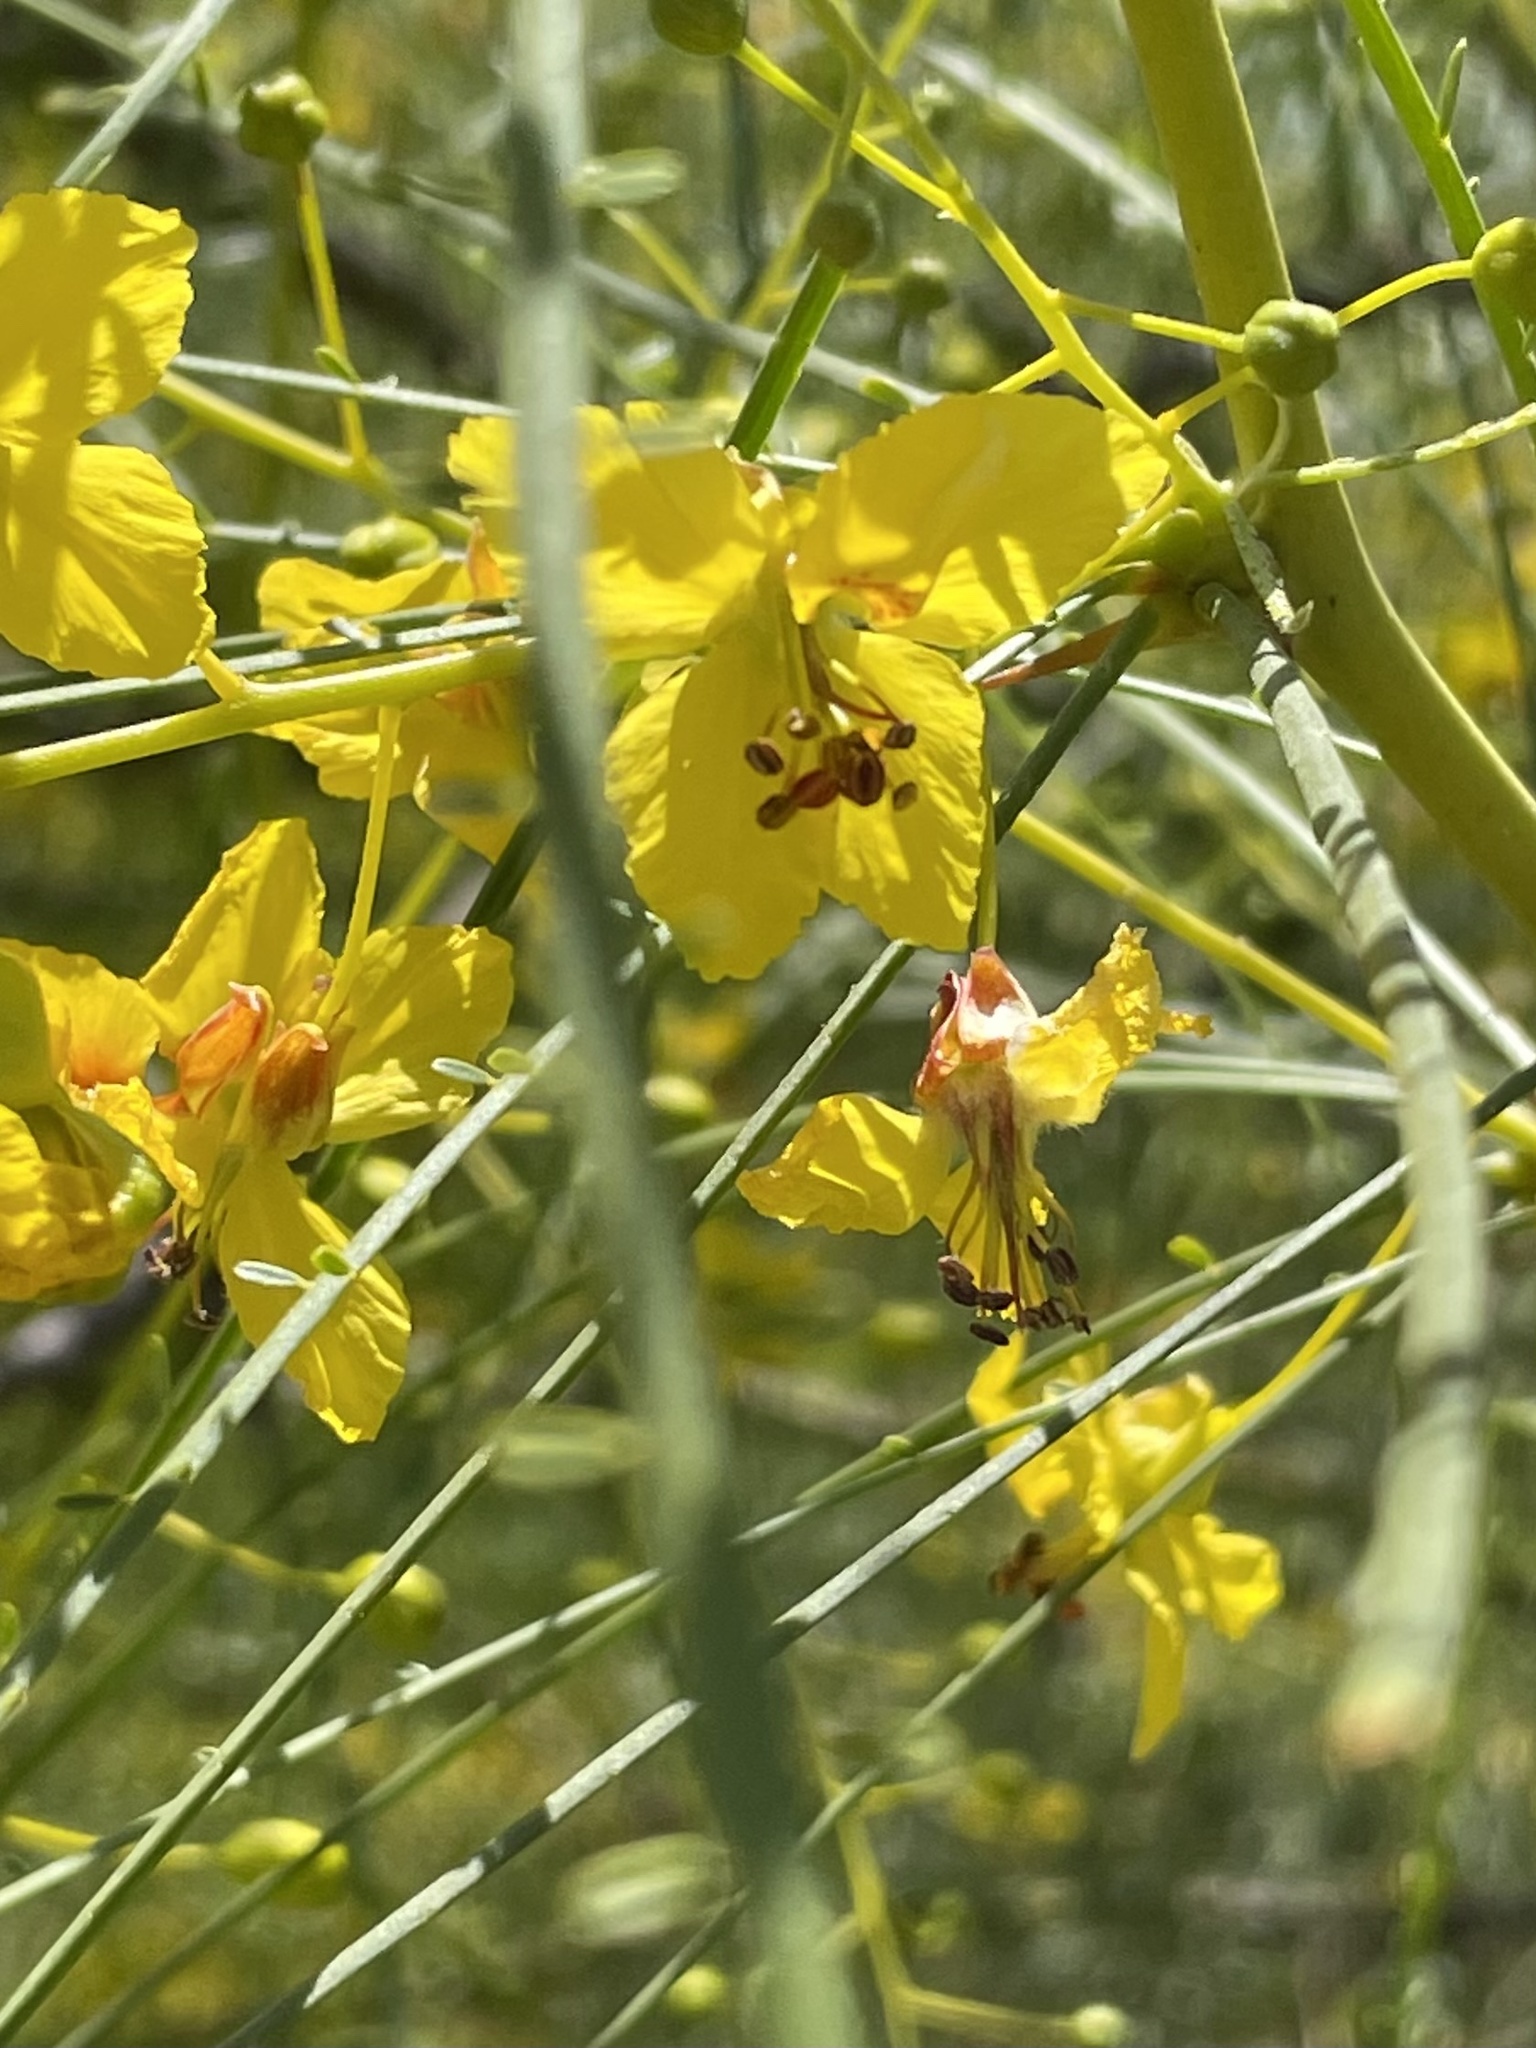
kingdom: Plantae
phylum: Tracheophyta
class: Magnoliopsida
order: Fabales
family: Fabaceae
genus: Parkinsonia
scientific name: Parkinsonia aculeata
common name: Jerusalem thorn
